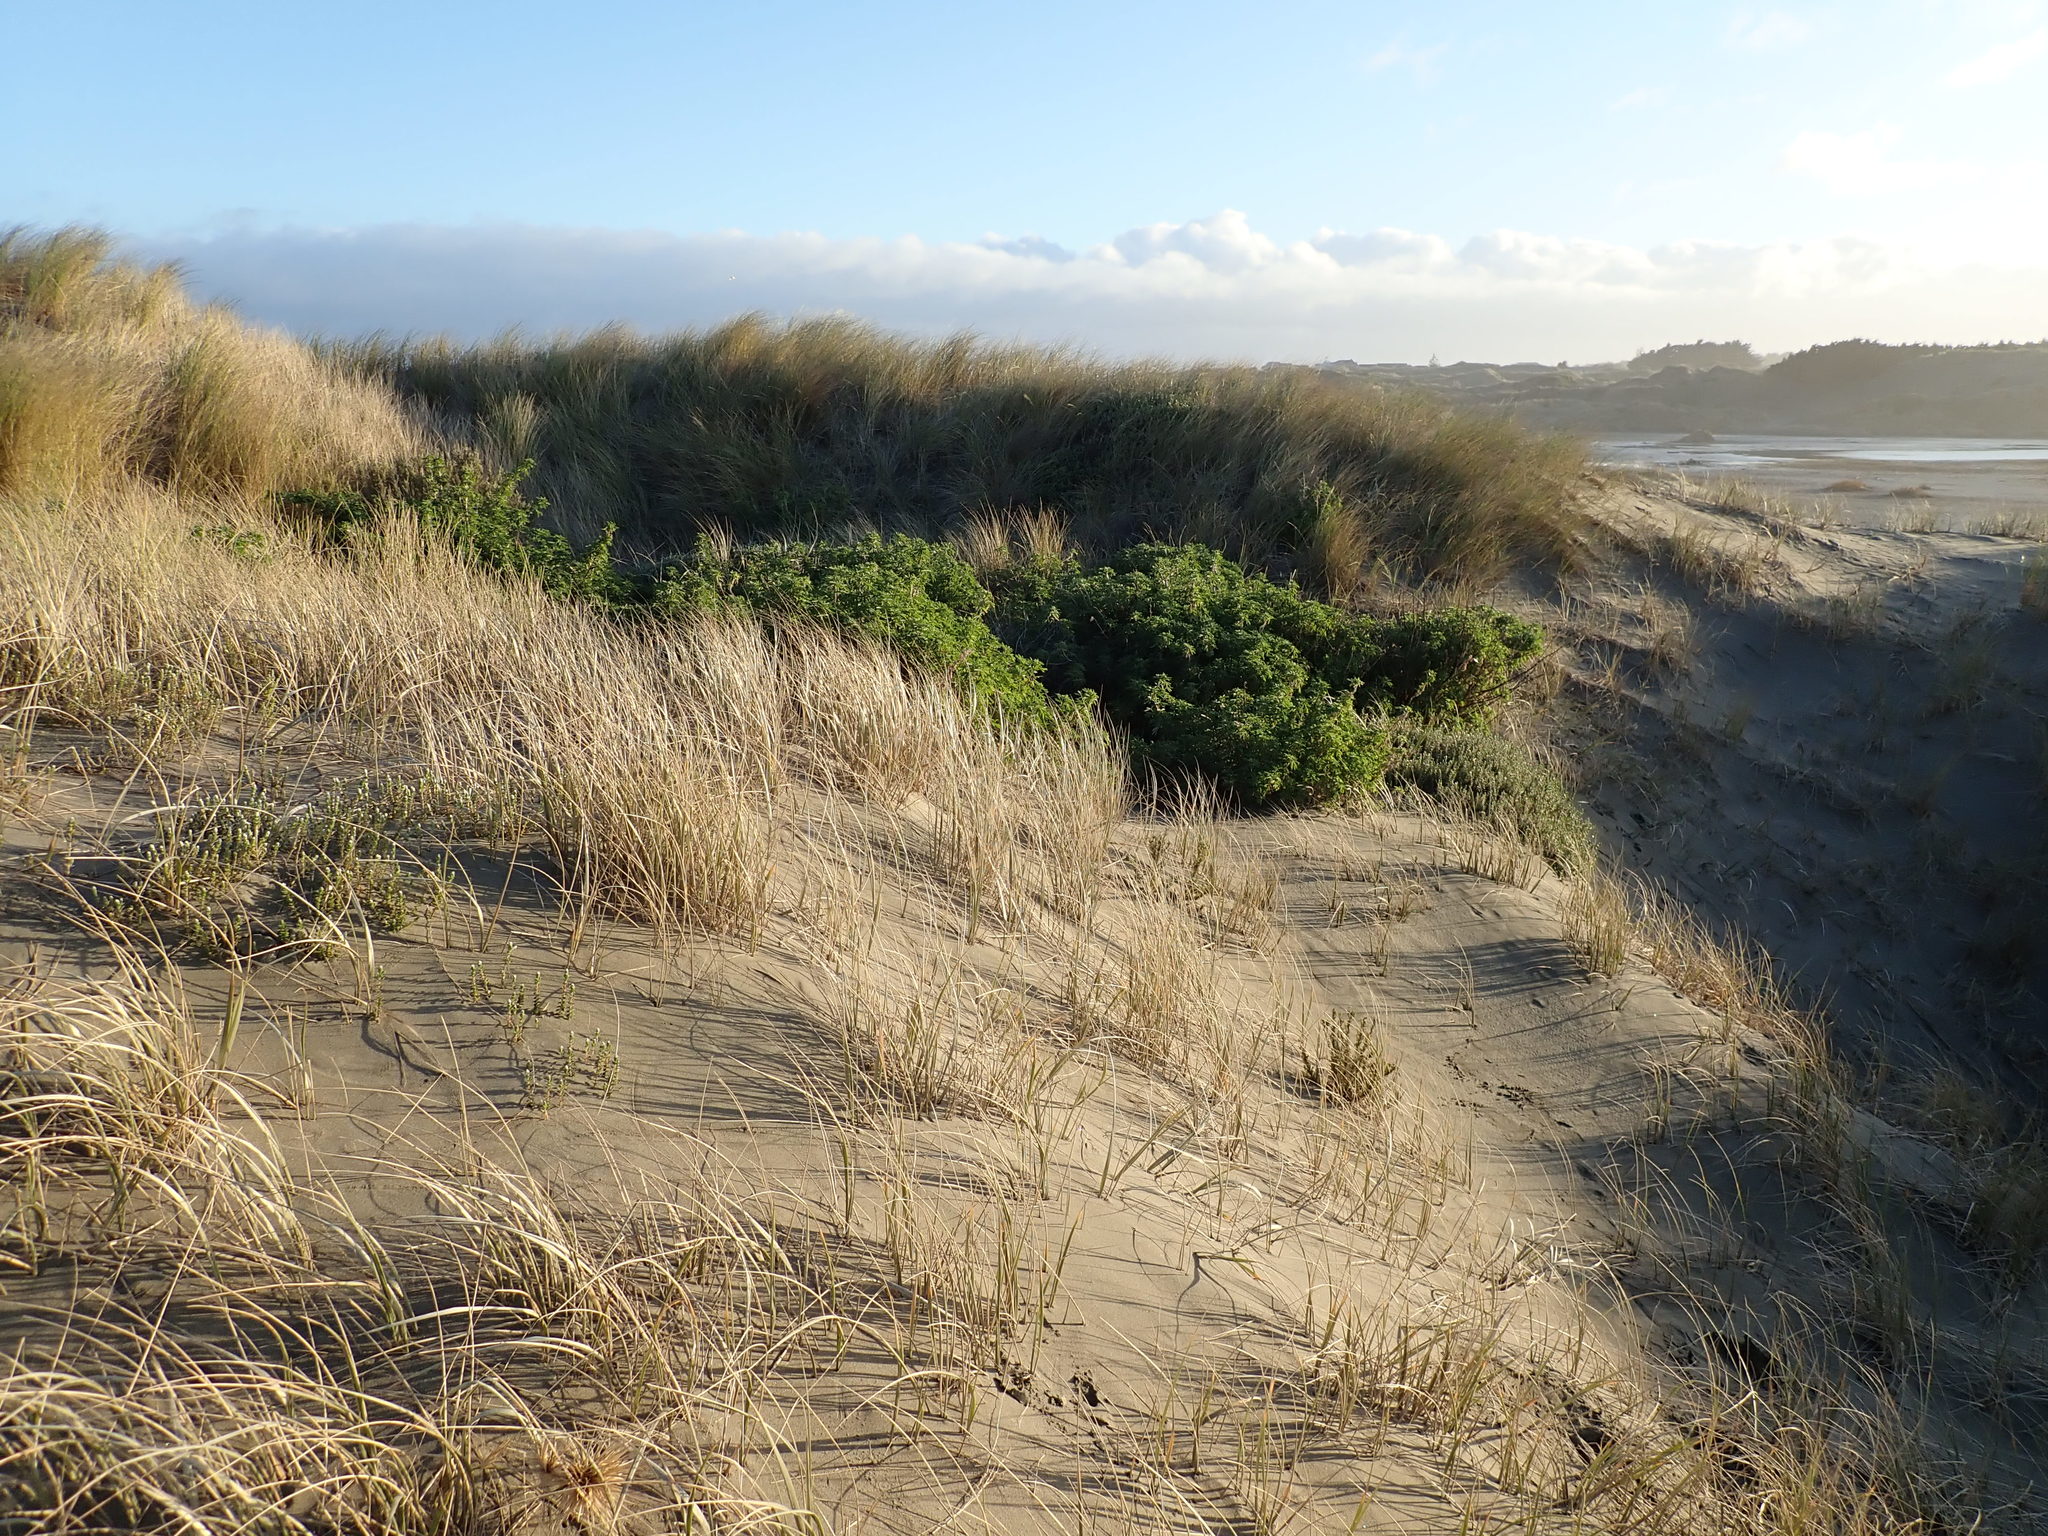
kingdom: Plantae
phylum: Tracheophyta
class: Magnoliopsida
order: Fabales
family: Fabaceae
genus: Lupinus
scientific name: Lupinus arboreus
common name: Yellow bush lupine
